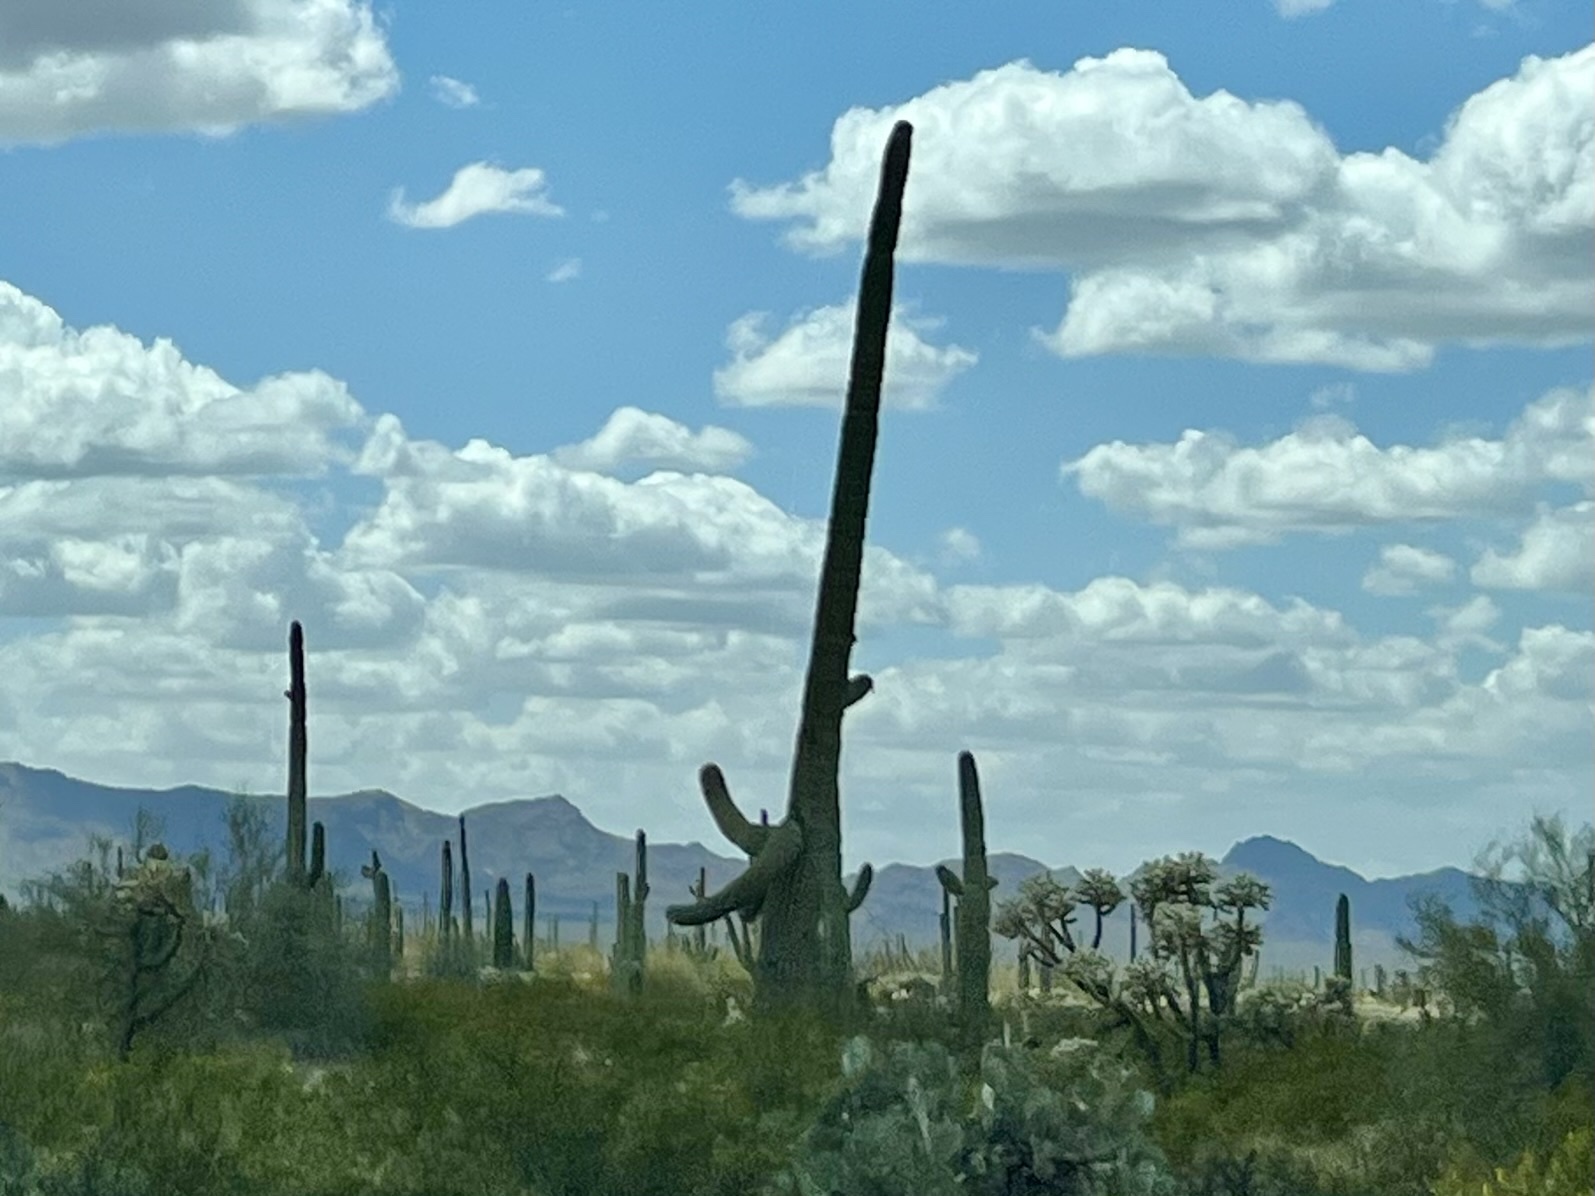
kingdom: Plantae
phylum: Tracheophyta
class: Magnoliopsida
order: Caryophyllales
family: Cactaceae
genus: Carnegiea
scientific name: Carnegiea gigantea
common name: Saguaro
